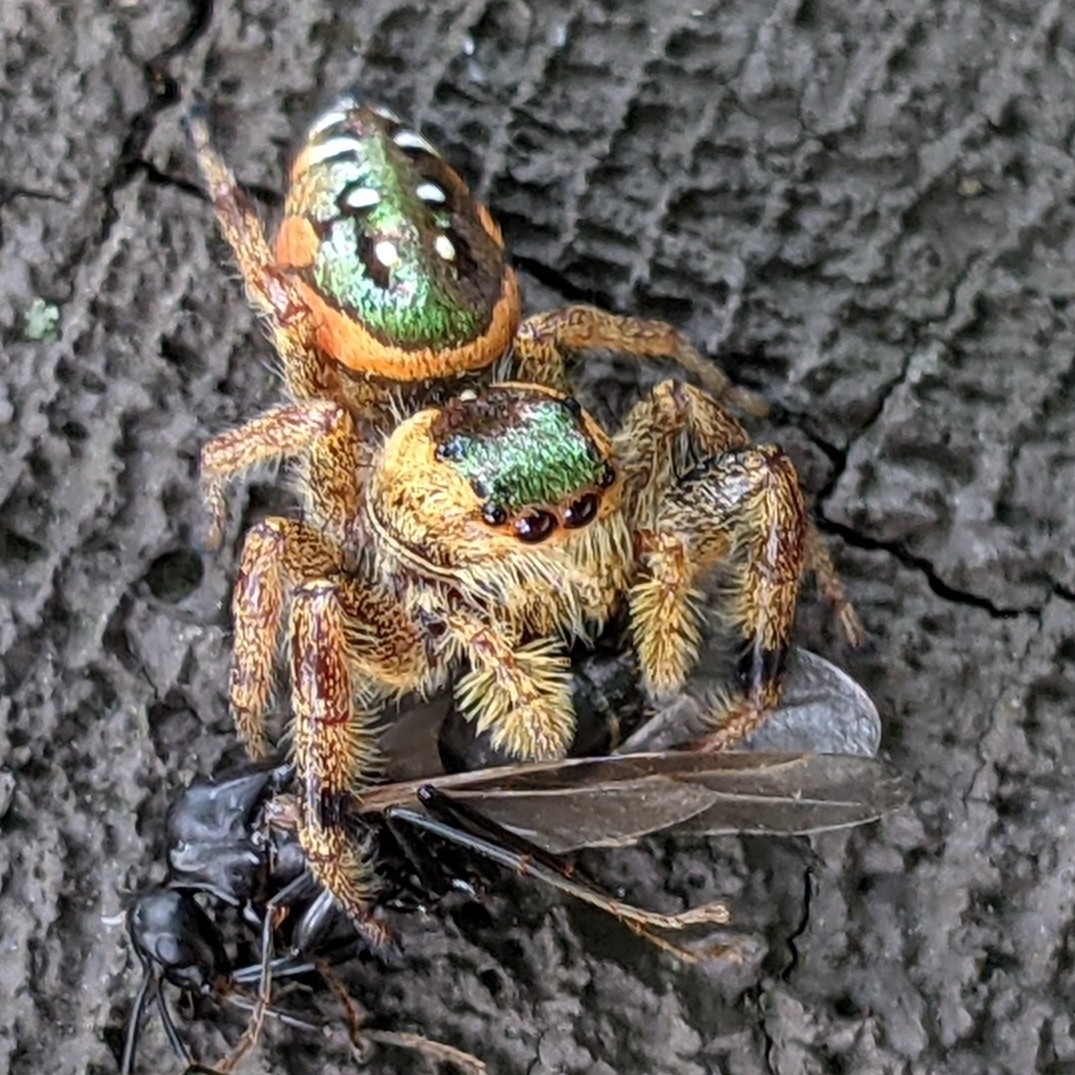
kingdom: Animalia
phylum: Arthropoda
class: Arachnida
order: Araneae
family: Salticidae
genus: Paraphidippus
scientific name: Paraphidippus aurantius
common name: Jumping spiders
